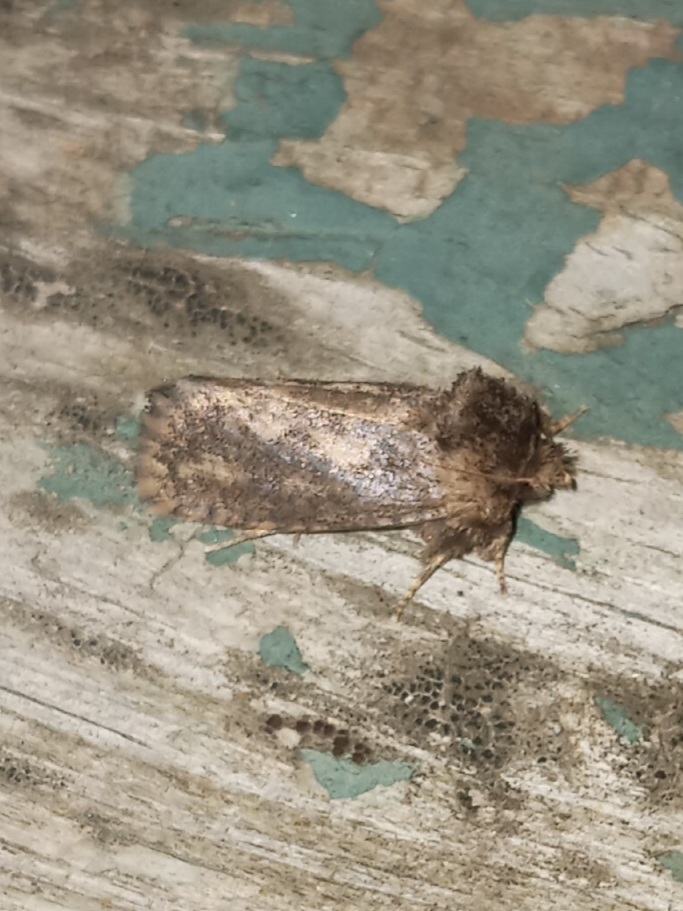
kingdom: Animalia
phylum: Arthropoda
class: Insecta
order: Lepidoptera
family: Tineidae
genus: Acrolophus
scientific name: Acrolophus arcanella
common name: Arcane grass tubeworm moth
